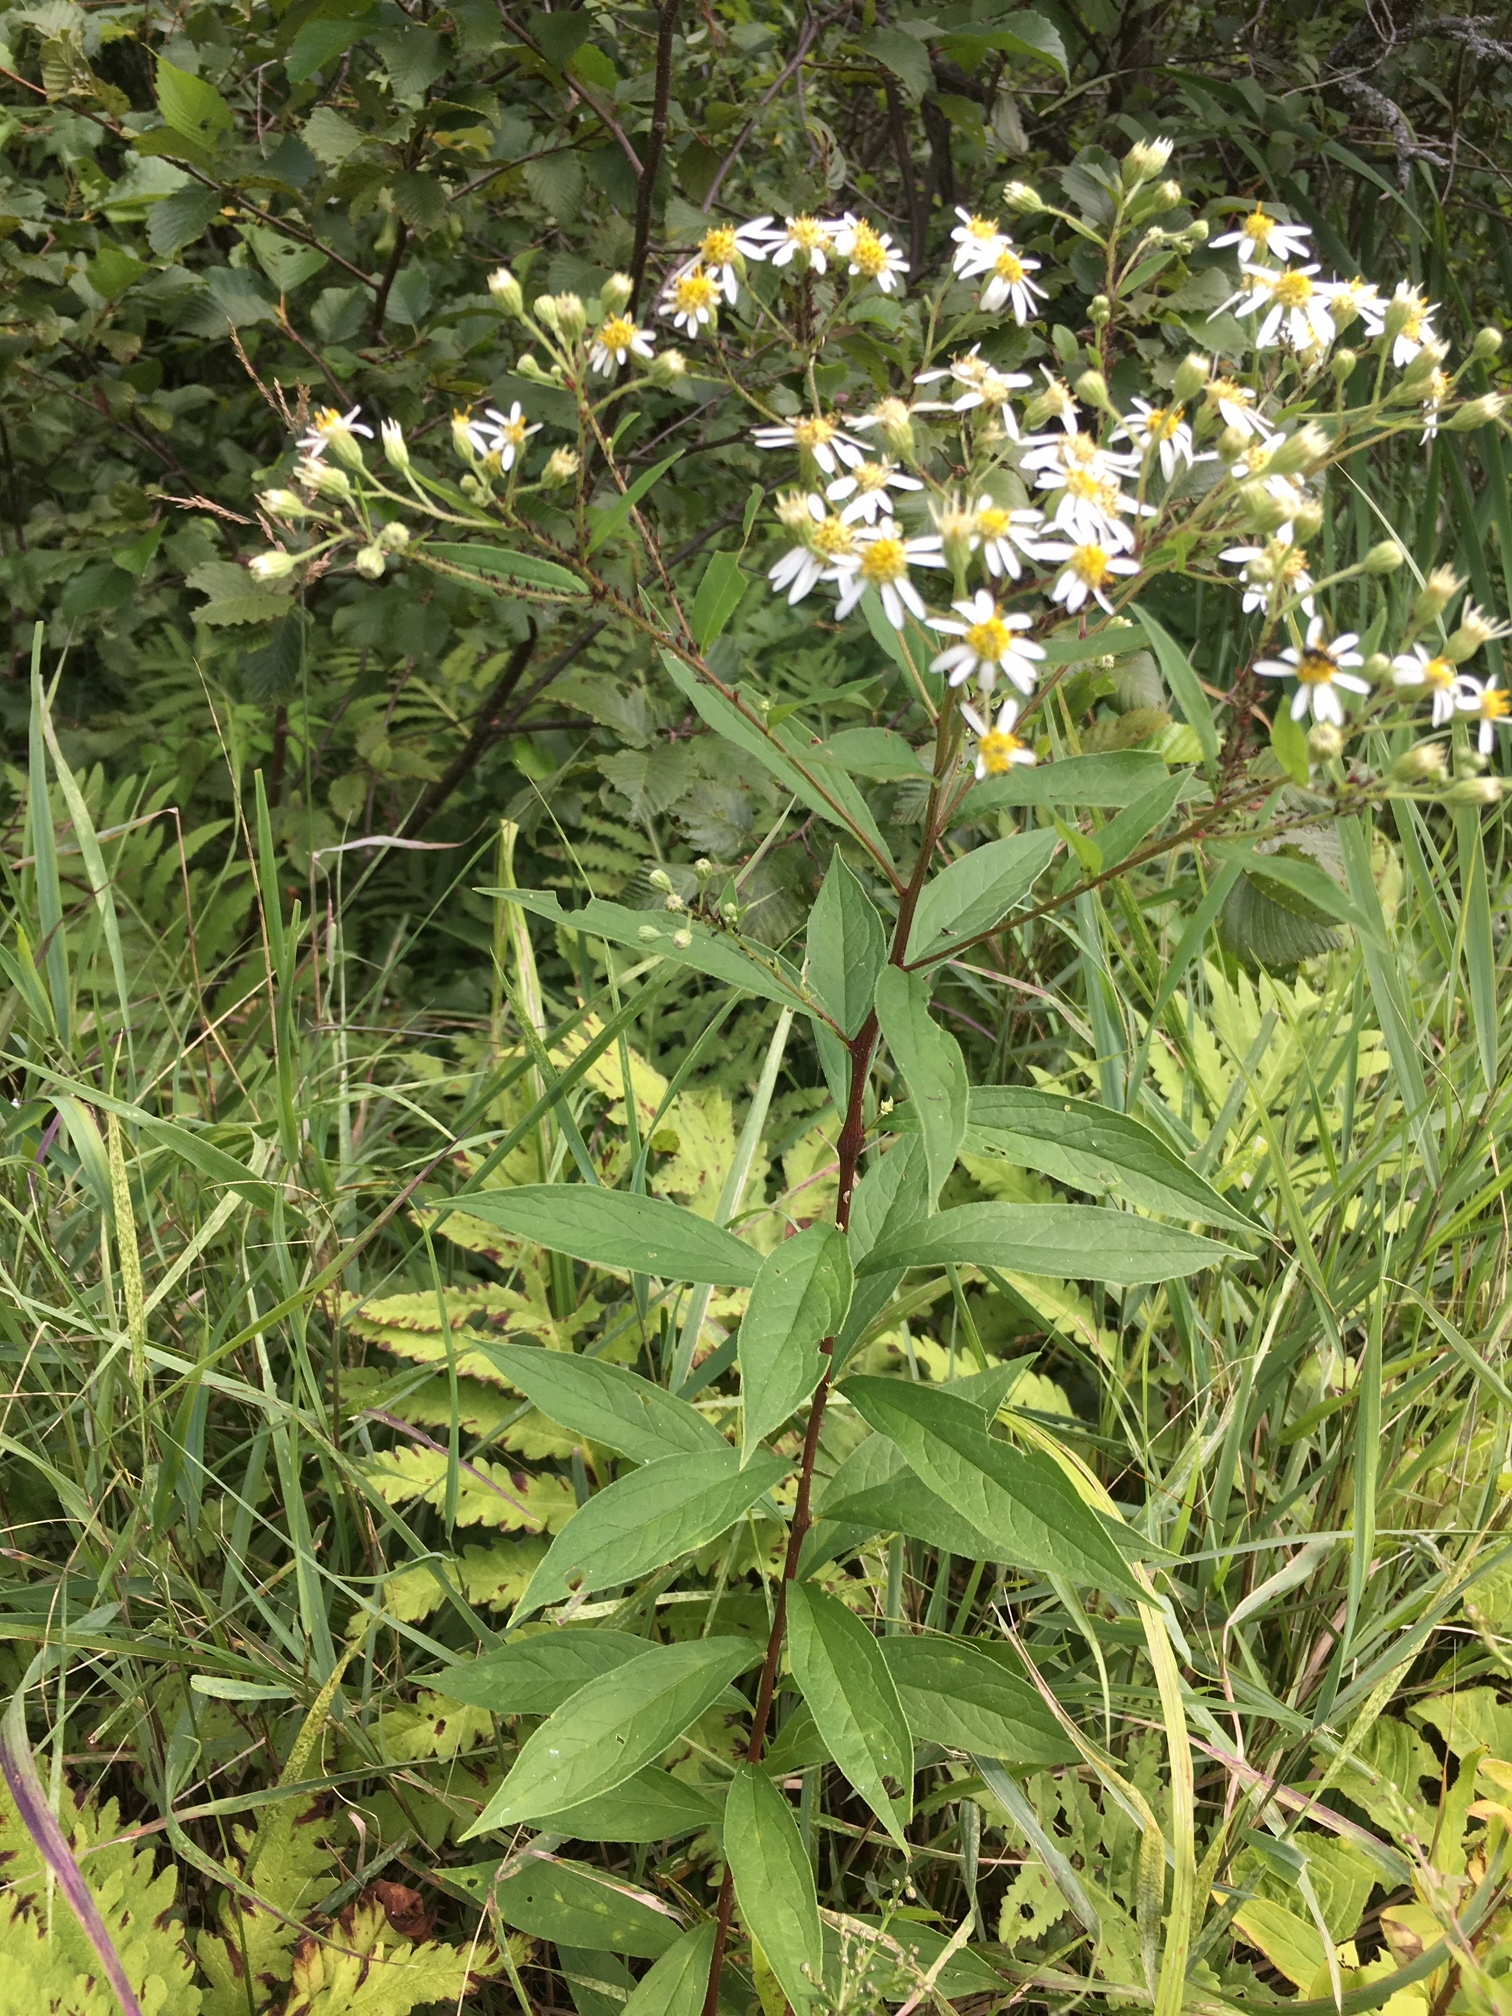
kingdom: Plantae
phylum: Tracheophyta
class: Magnoliopsida
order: Asterales
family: Asteraceae
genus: Doellingeria
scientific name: Doellingeria umbellata
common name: Flat-top white aster
